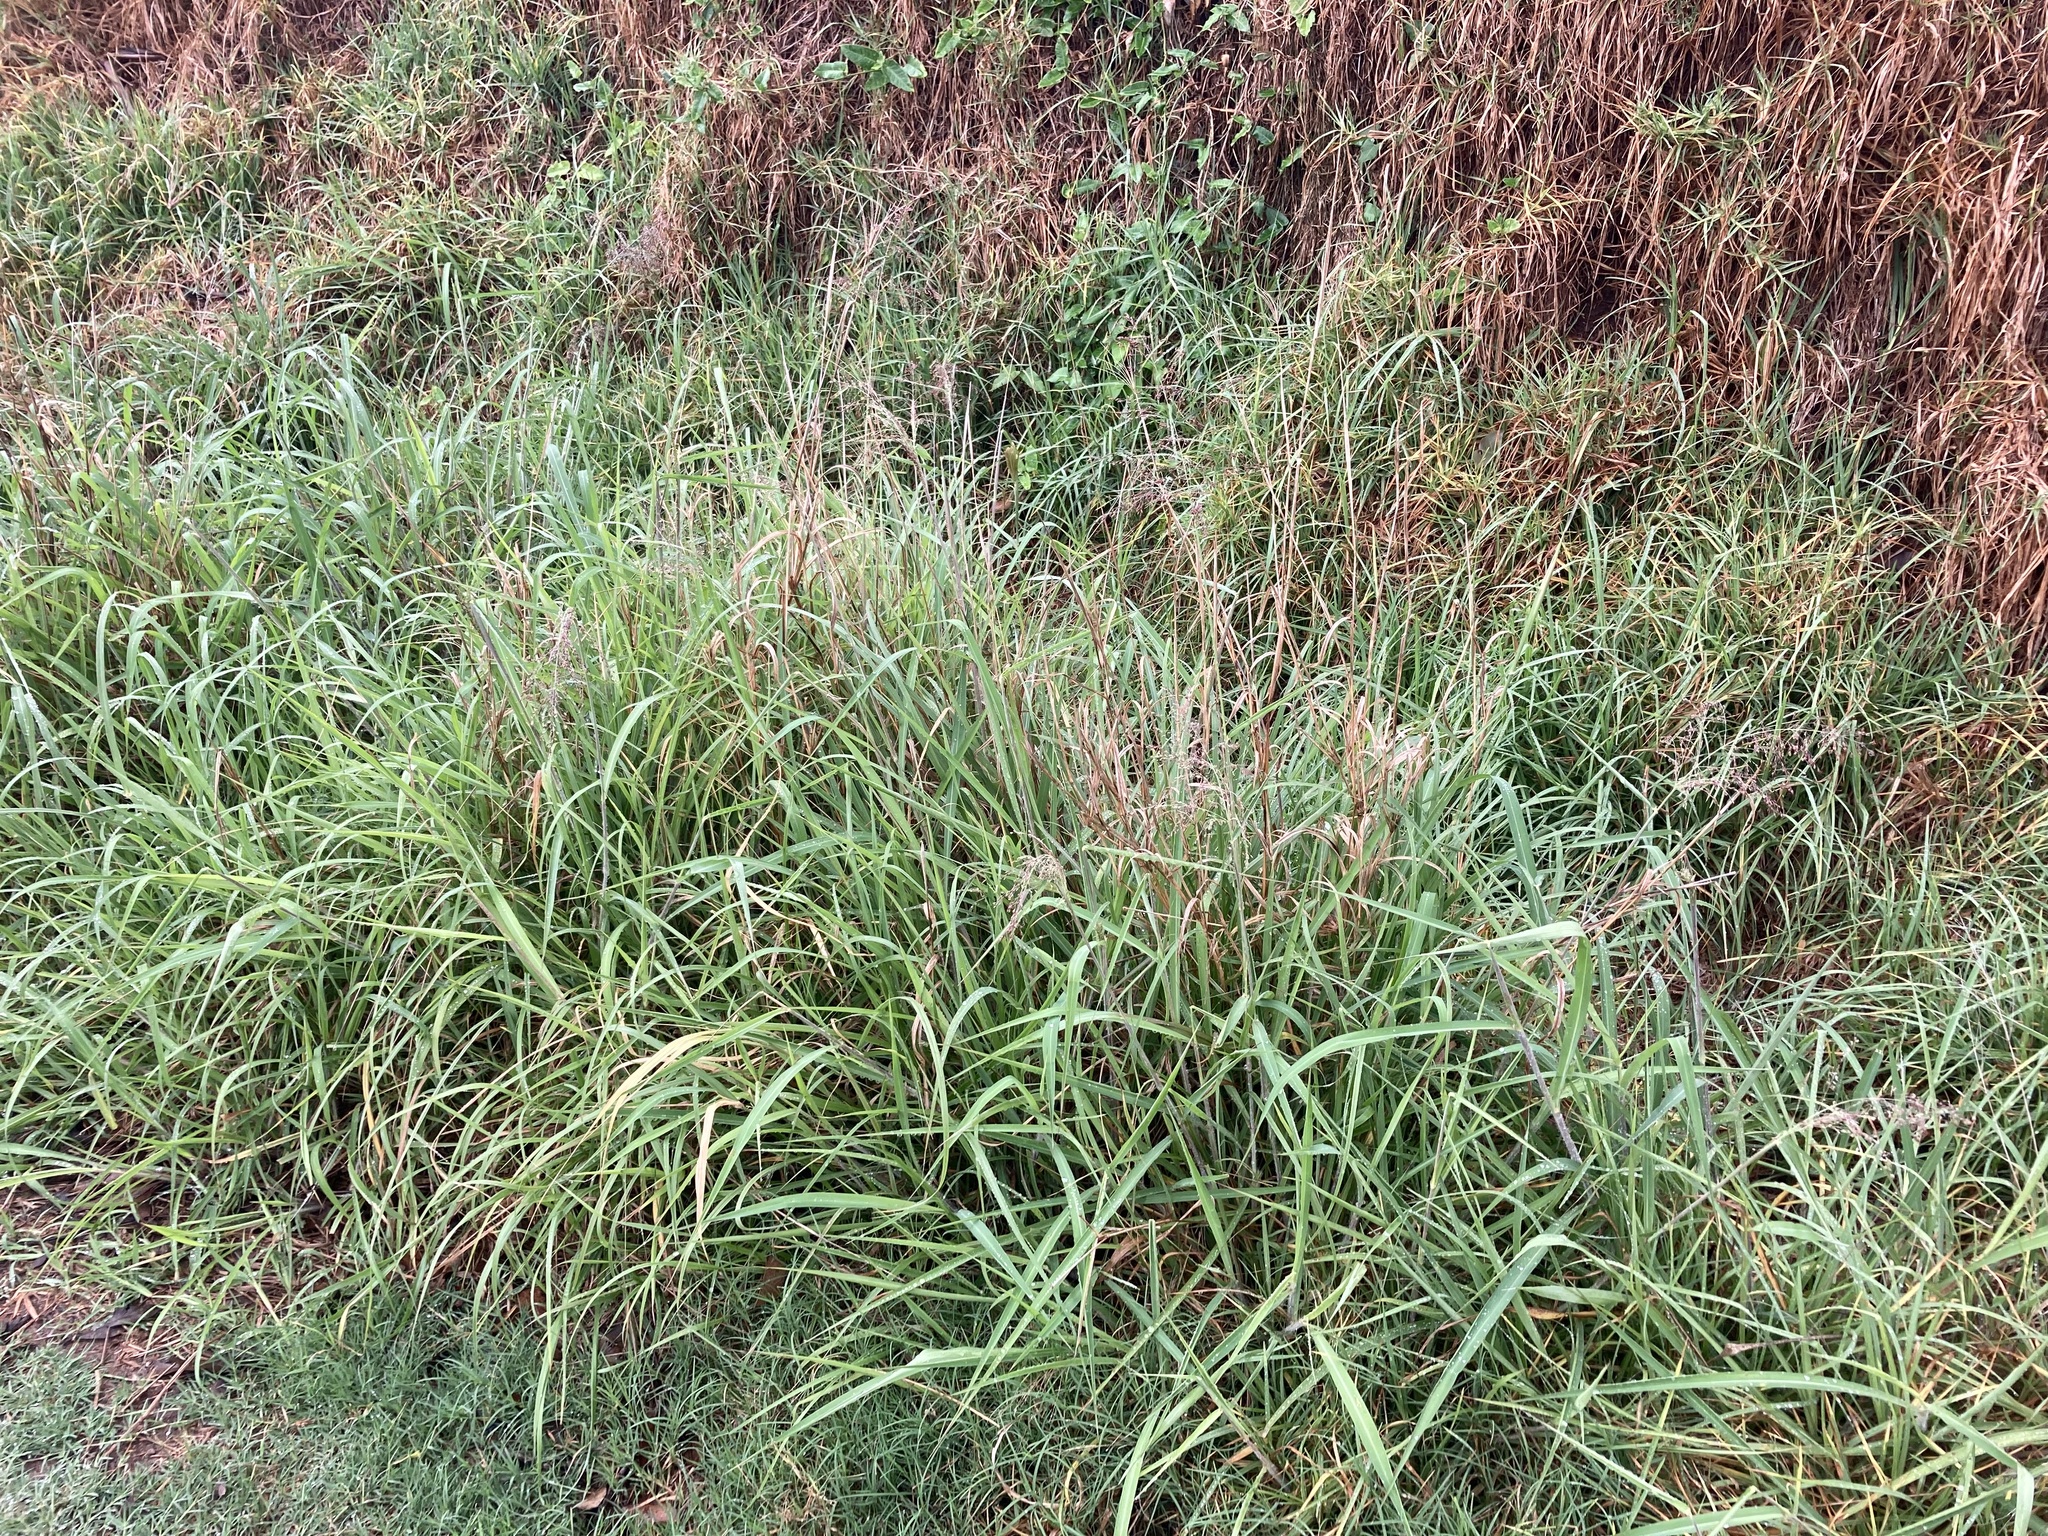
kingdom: Plantae
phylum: Tracheophyta
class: Liliopsida
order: Poales
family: Poaceae
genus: Megathyrsus
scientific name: Megathyrsus maximus
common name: Guineagrass
